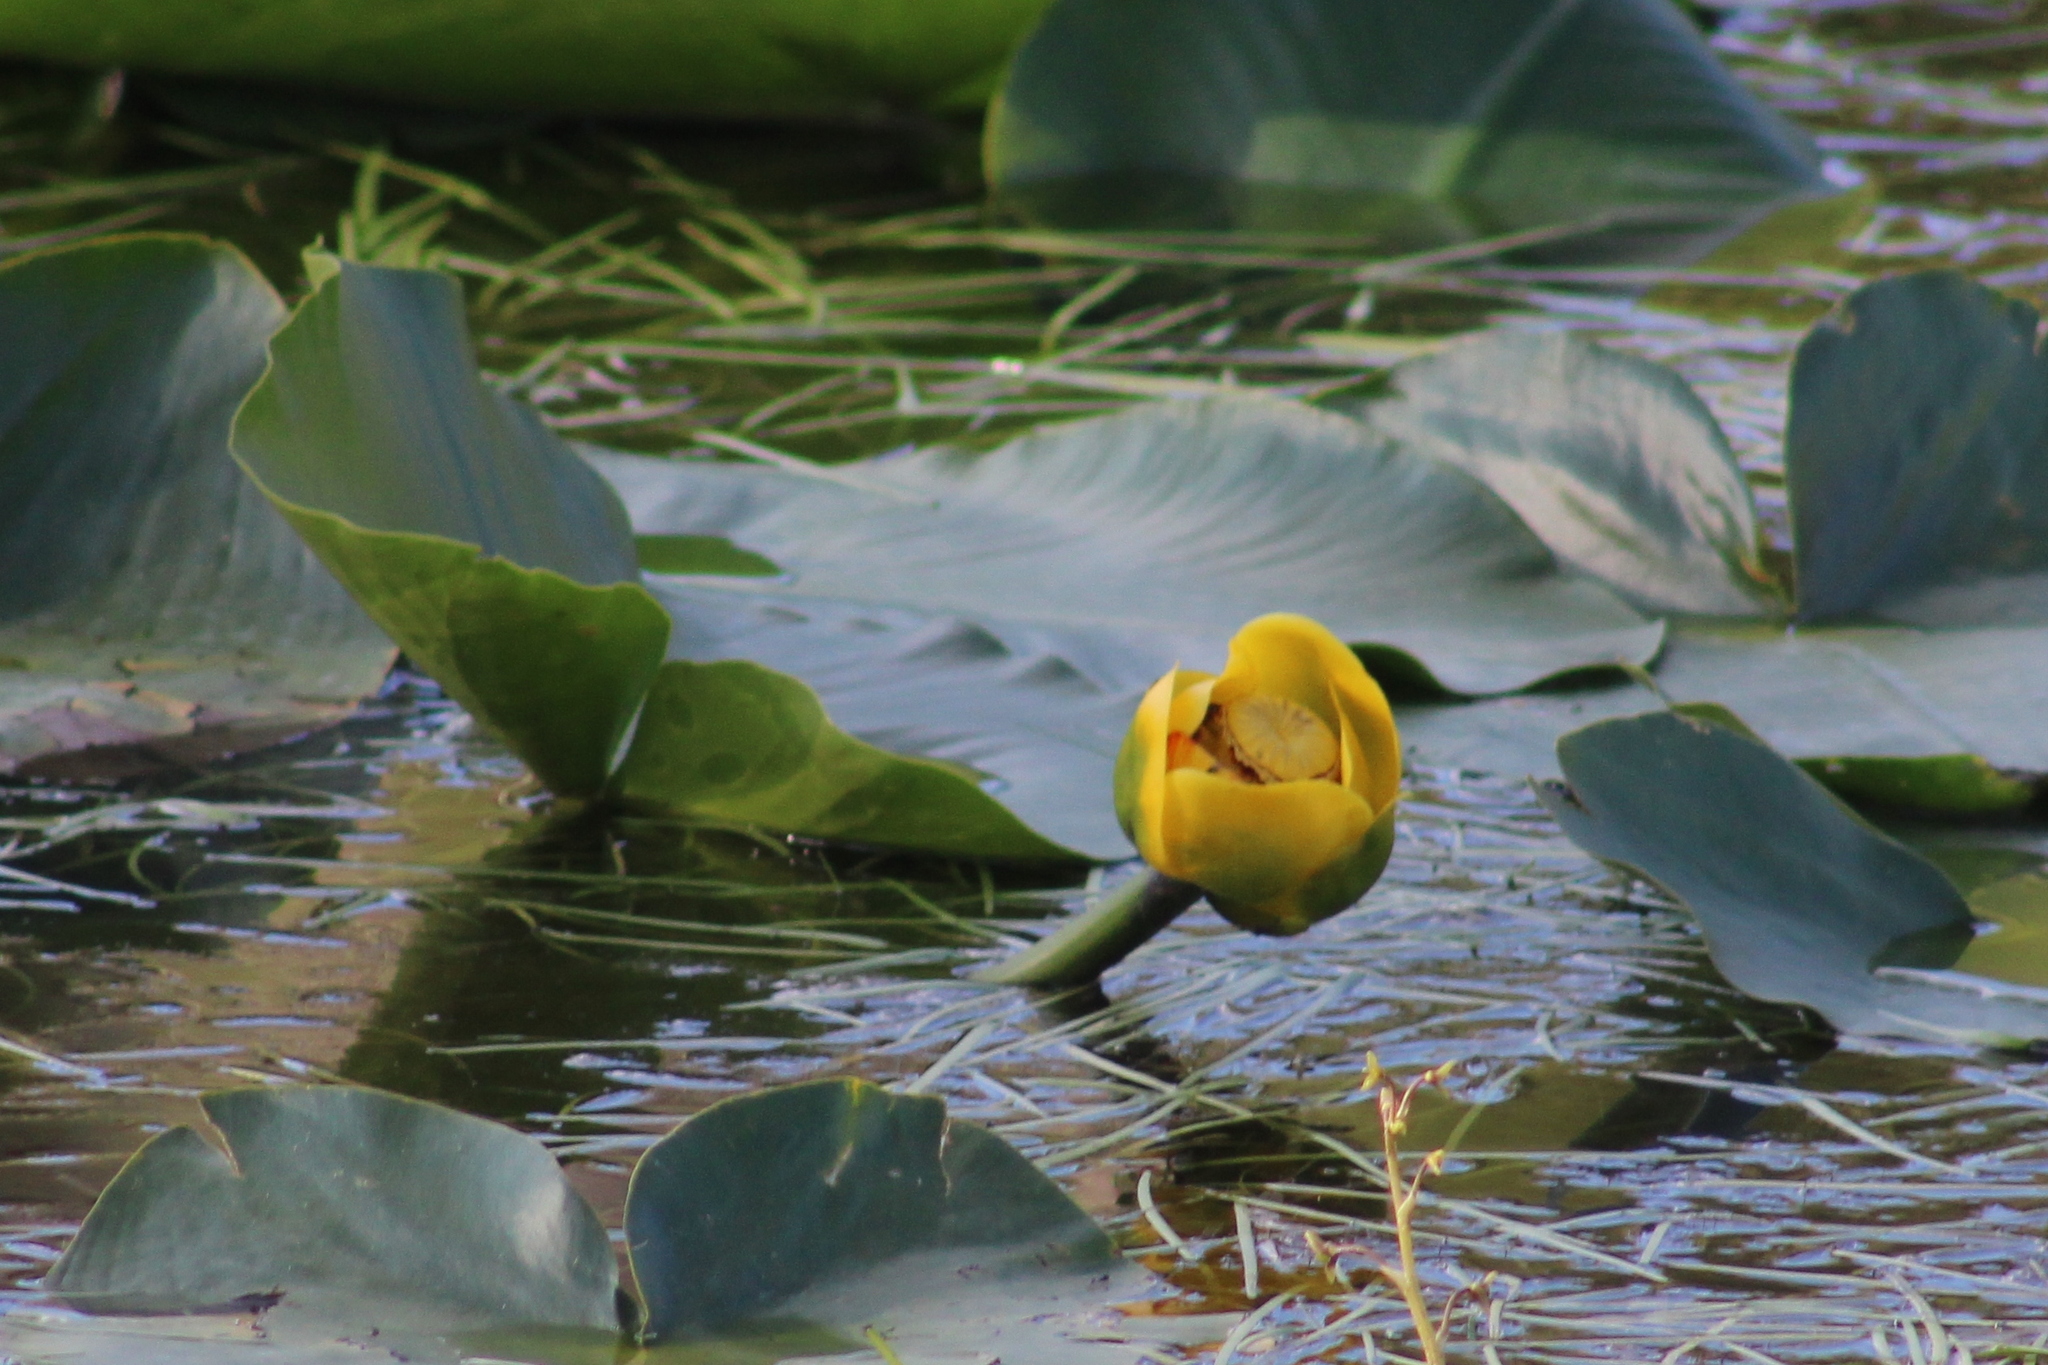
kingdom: Plantae
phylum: Tracheophyta
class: Magnoliopsida
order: Nymphaeales
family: Nymphaeaceae
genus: Nuphar
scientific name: Nuphar polysepala
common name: Rocky mountain cow-lily
